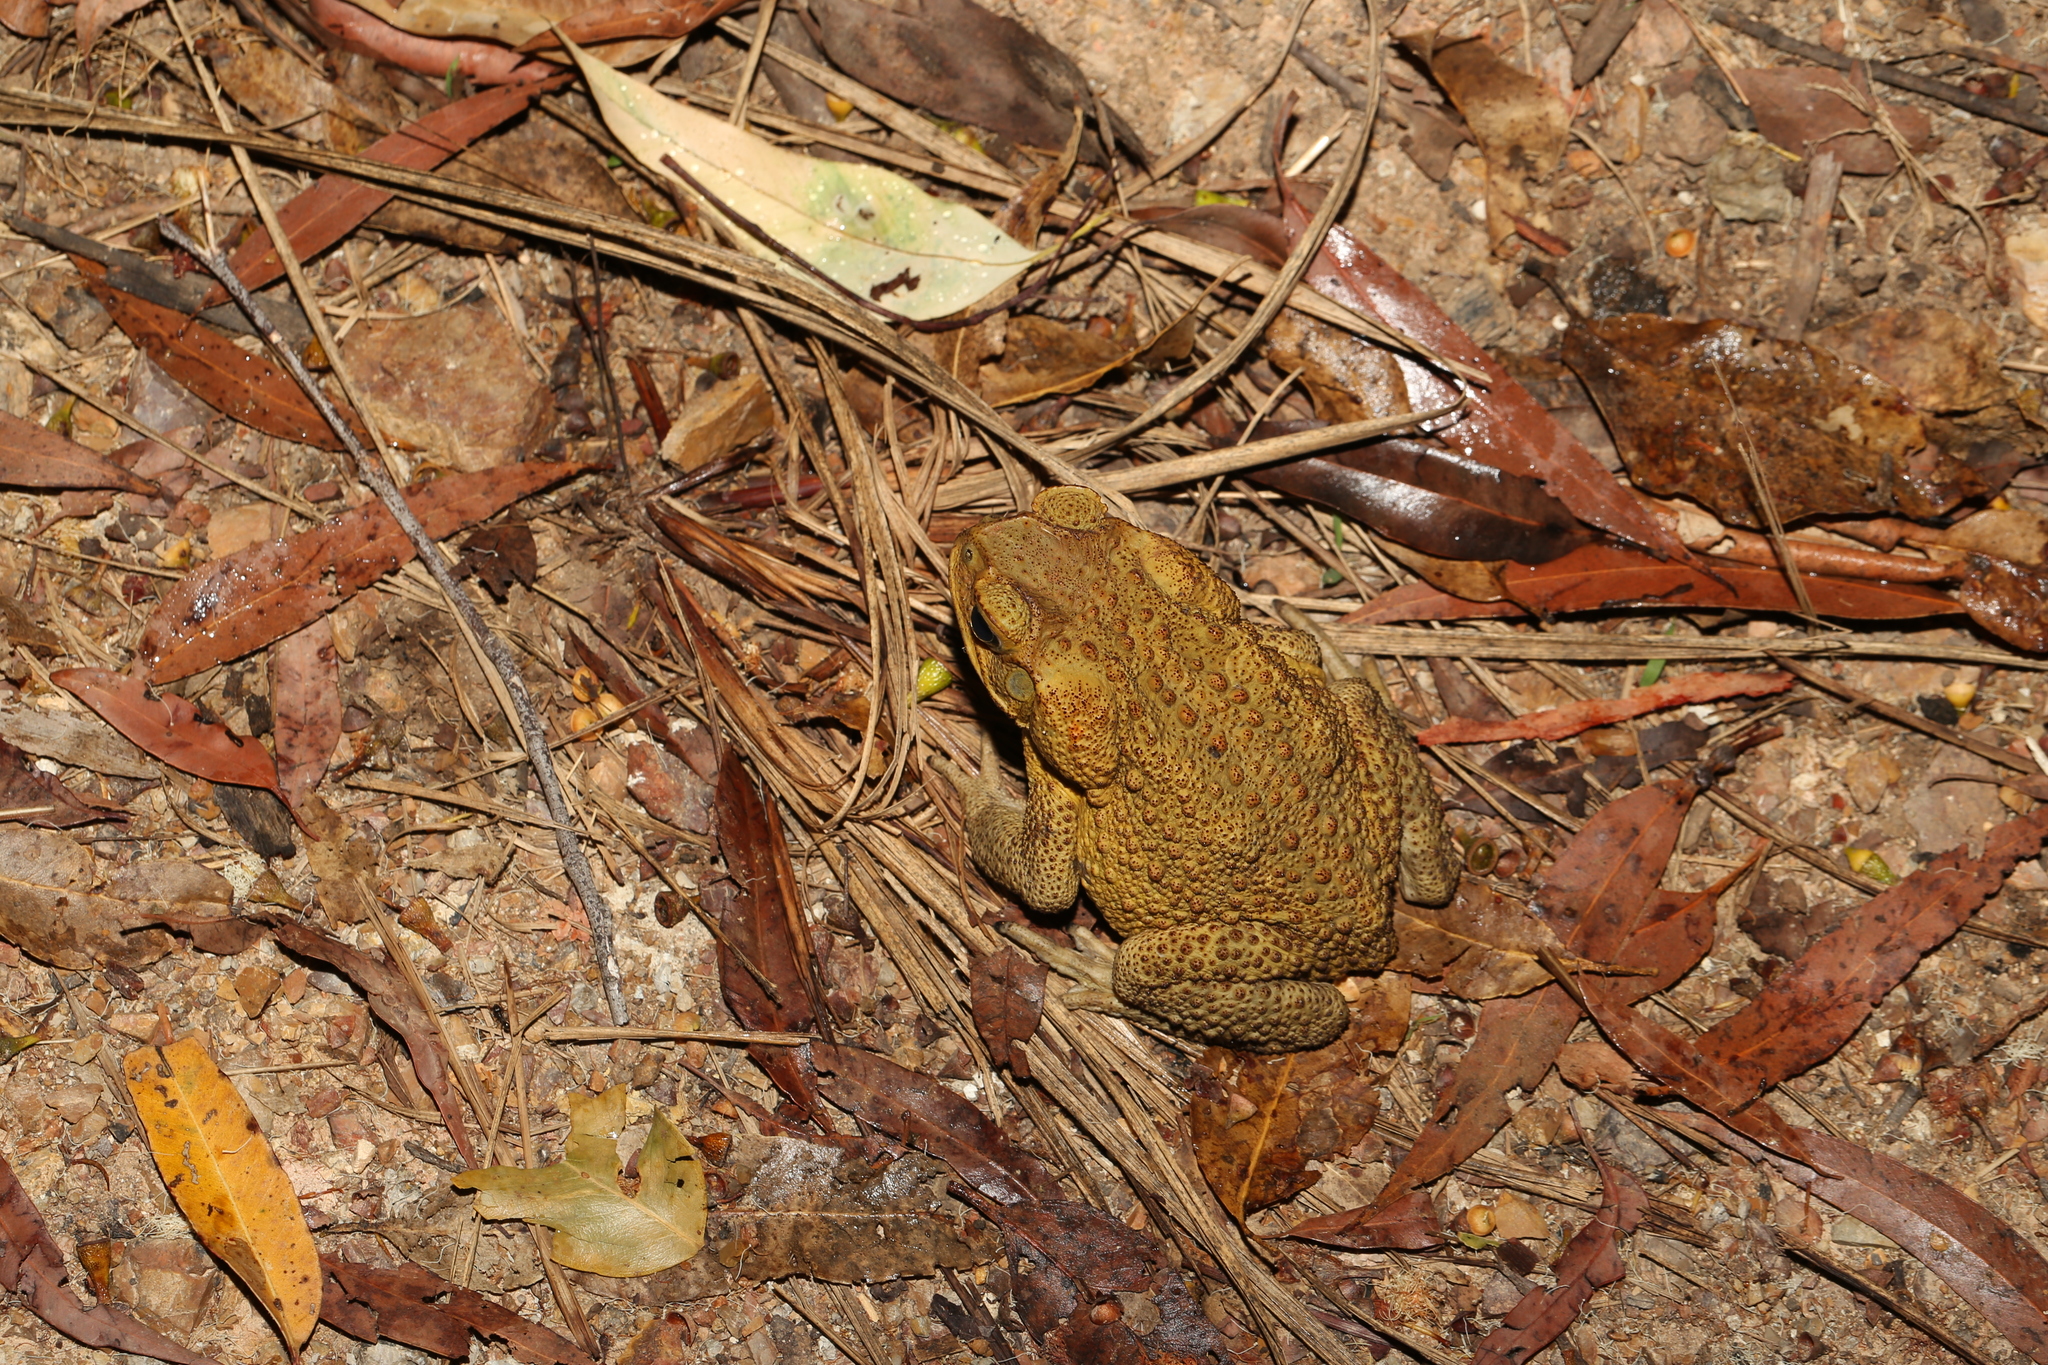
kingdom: Animalia
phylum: Chordata
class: Amphibia
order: Anura
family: Bufonidae
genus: Rhinella
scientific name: Rhinella marina
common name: Cane toad
